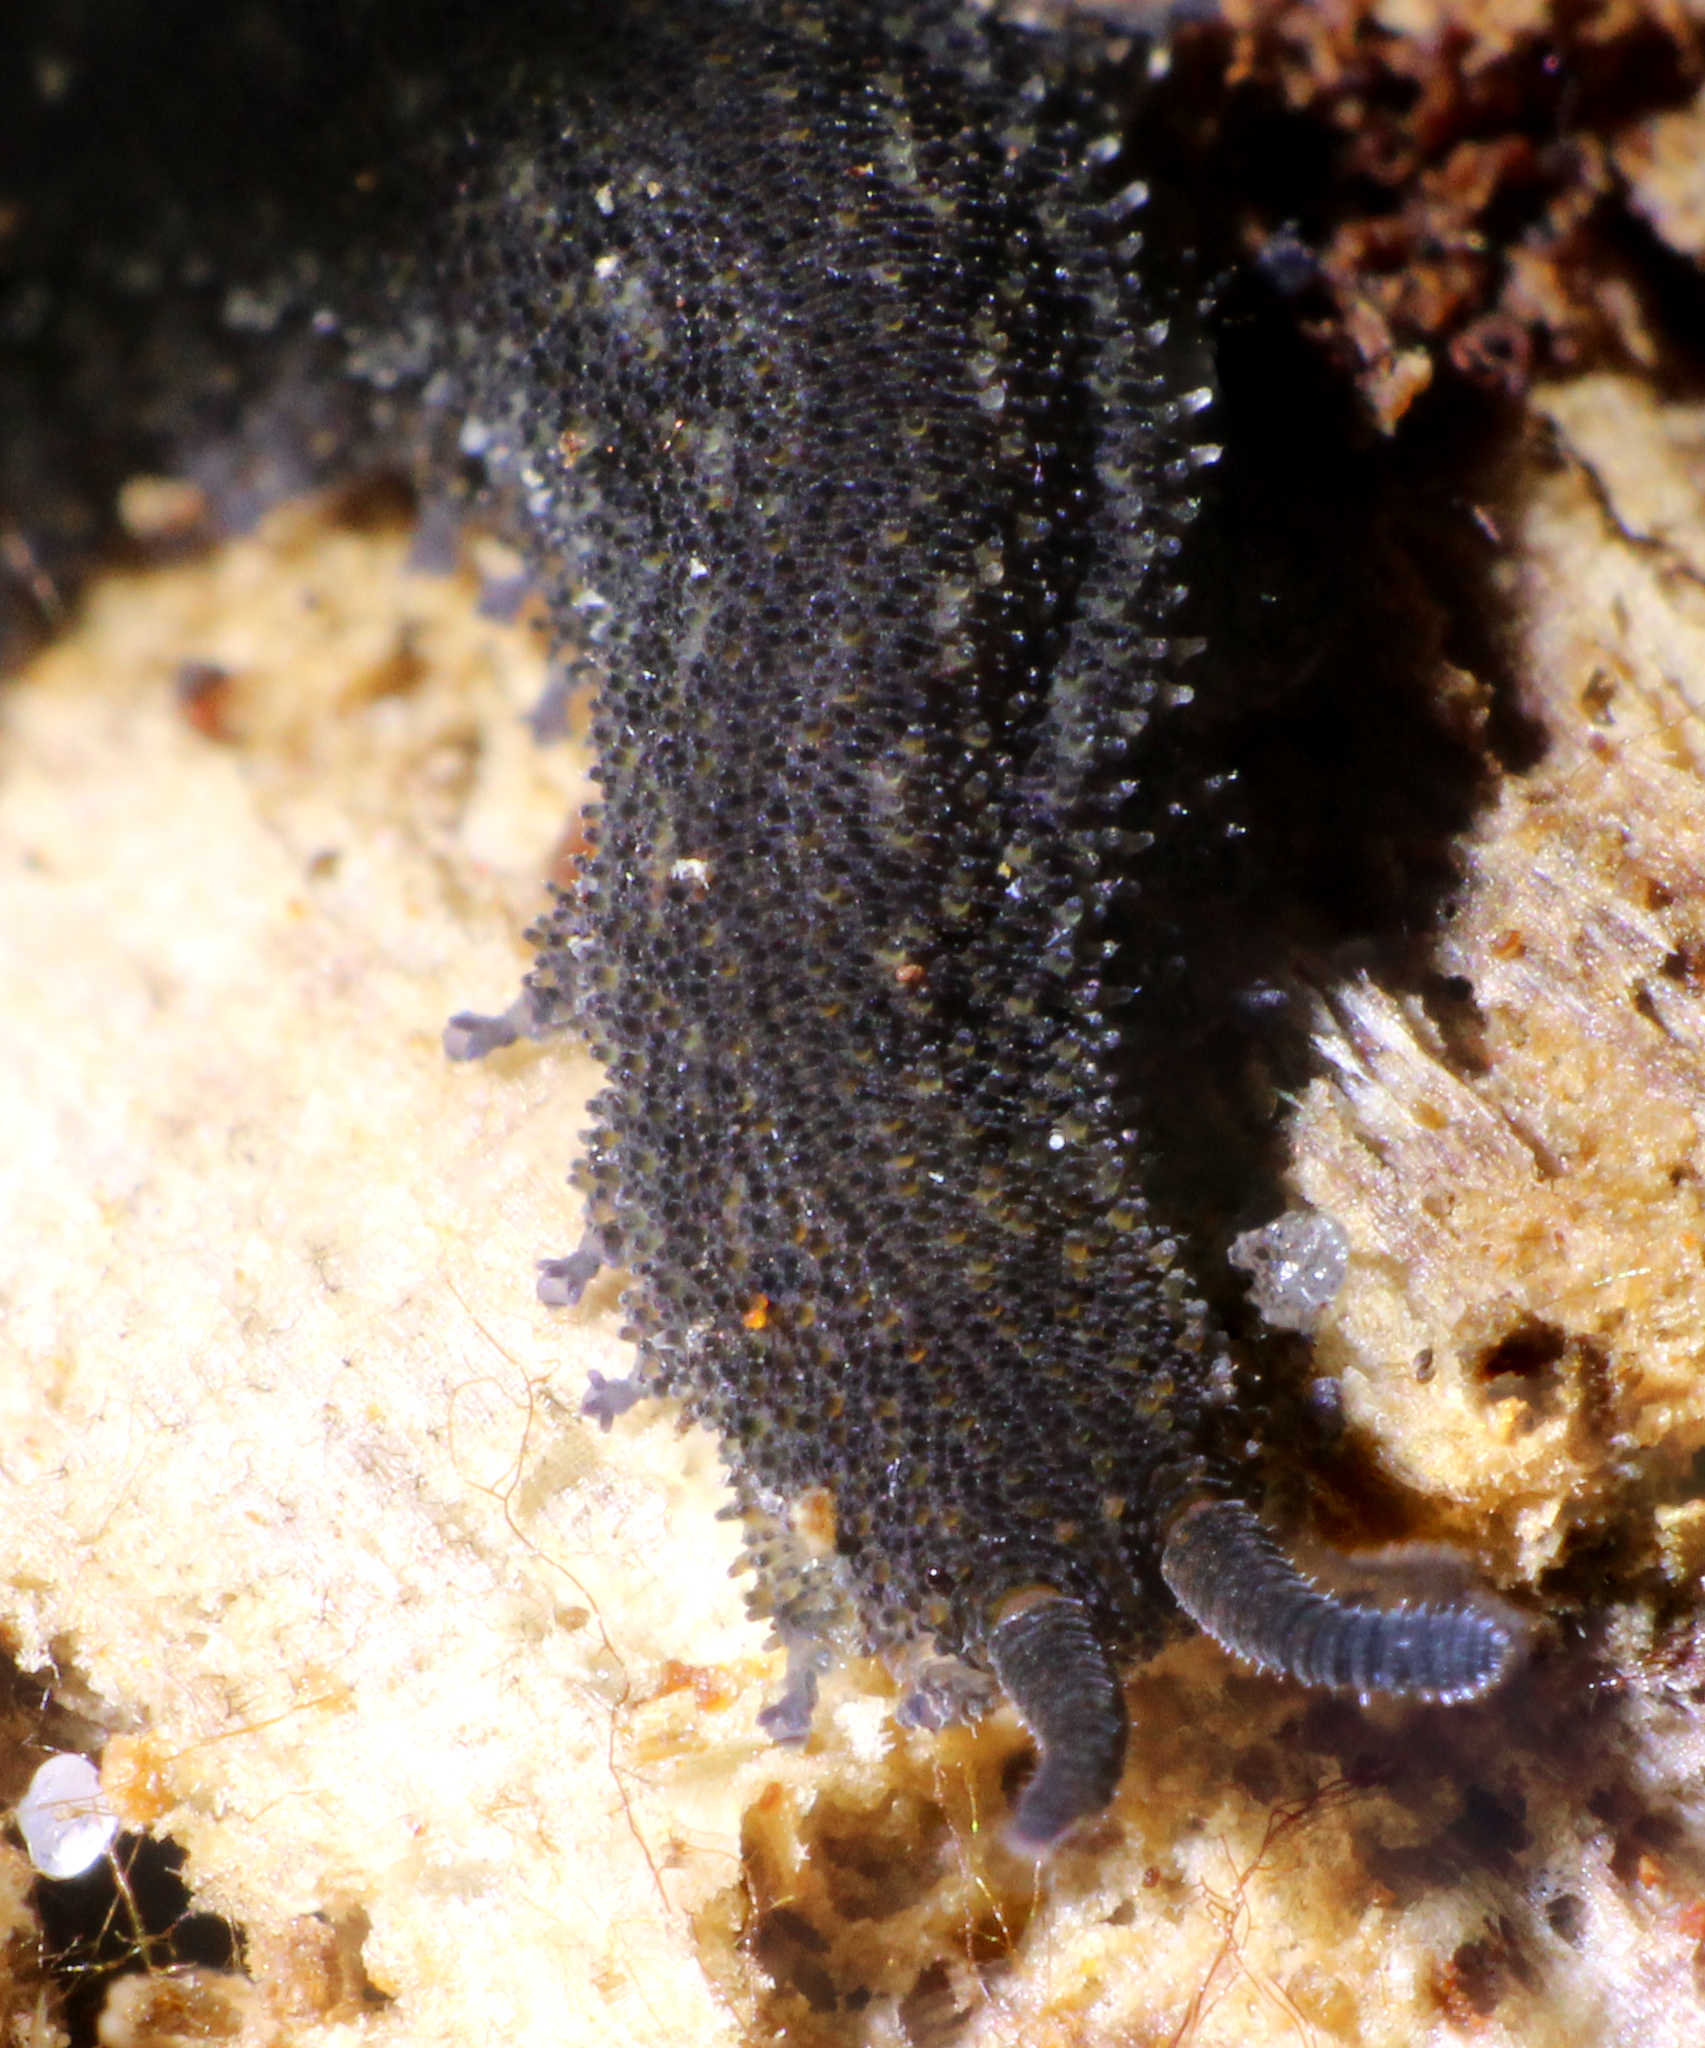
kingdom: Animalia
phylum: Onychophora
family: Peripatopsidae
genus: Kumbadjena
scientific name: Kumbadjena extrema
